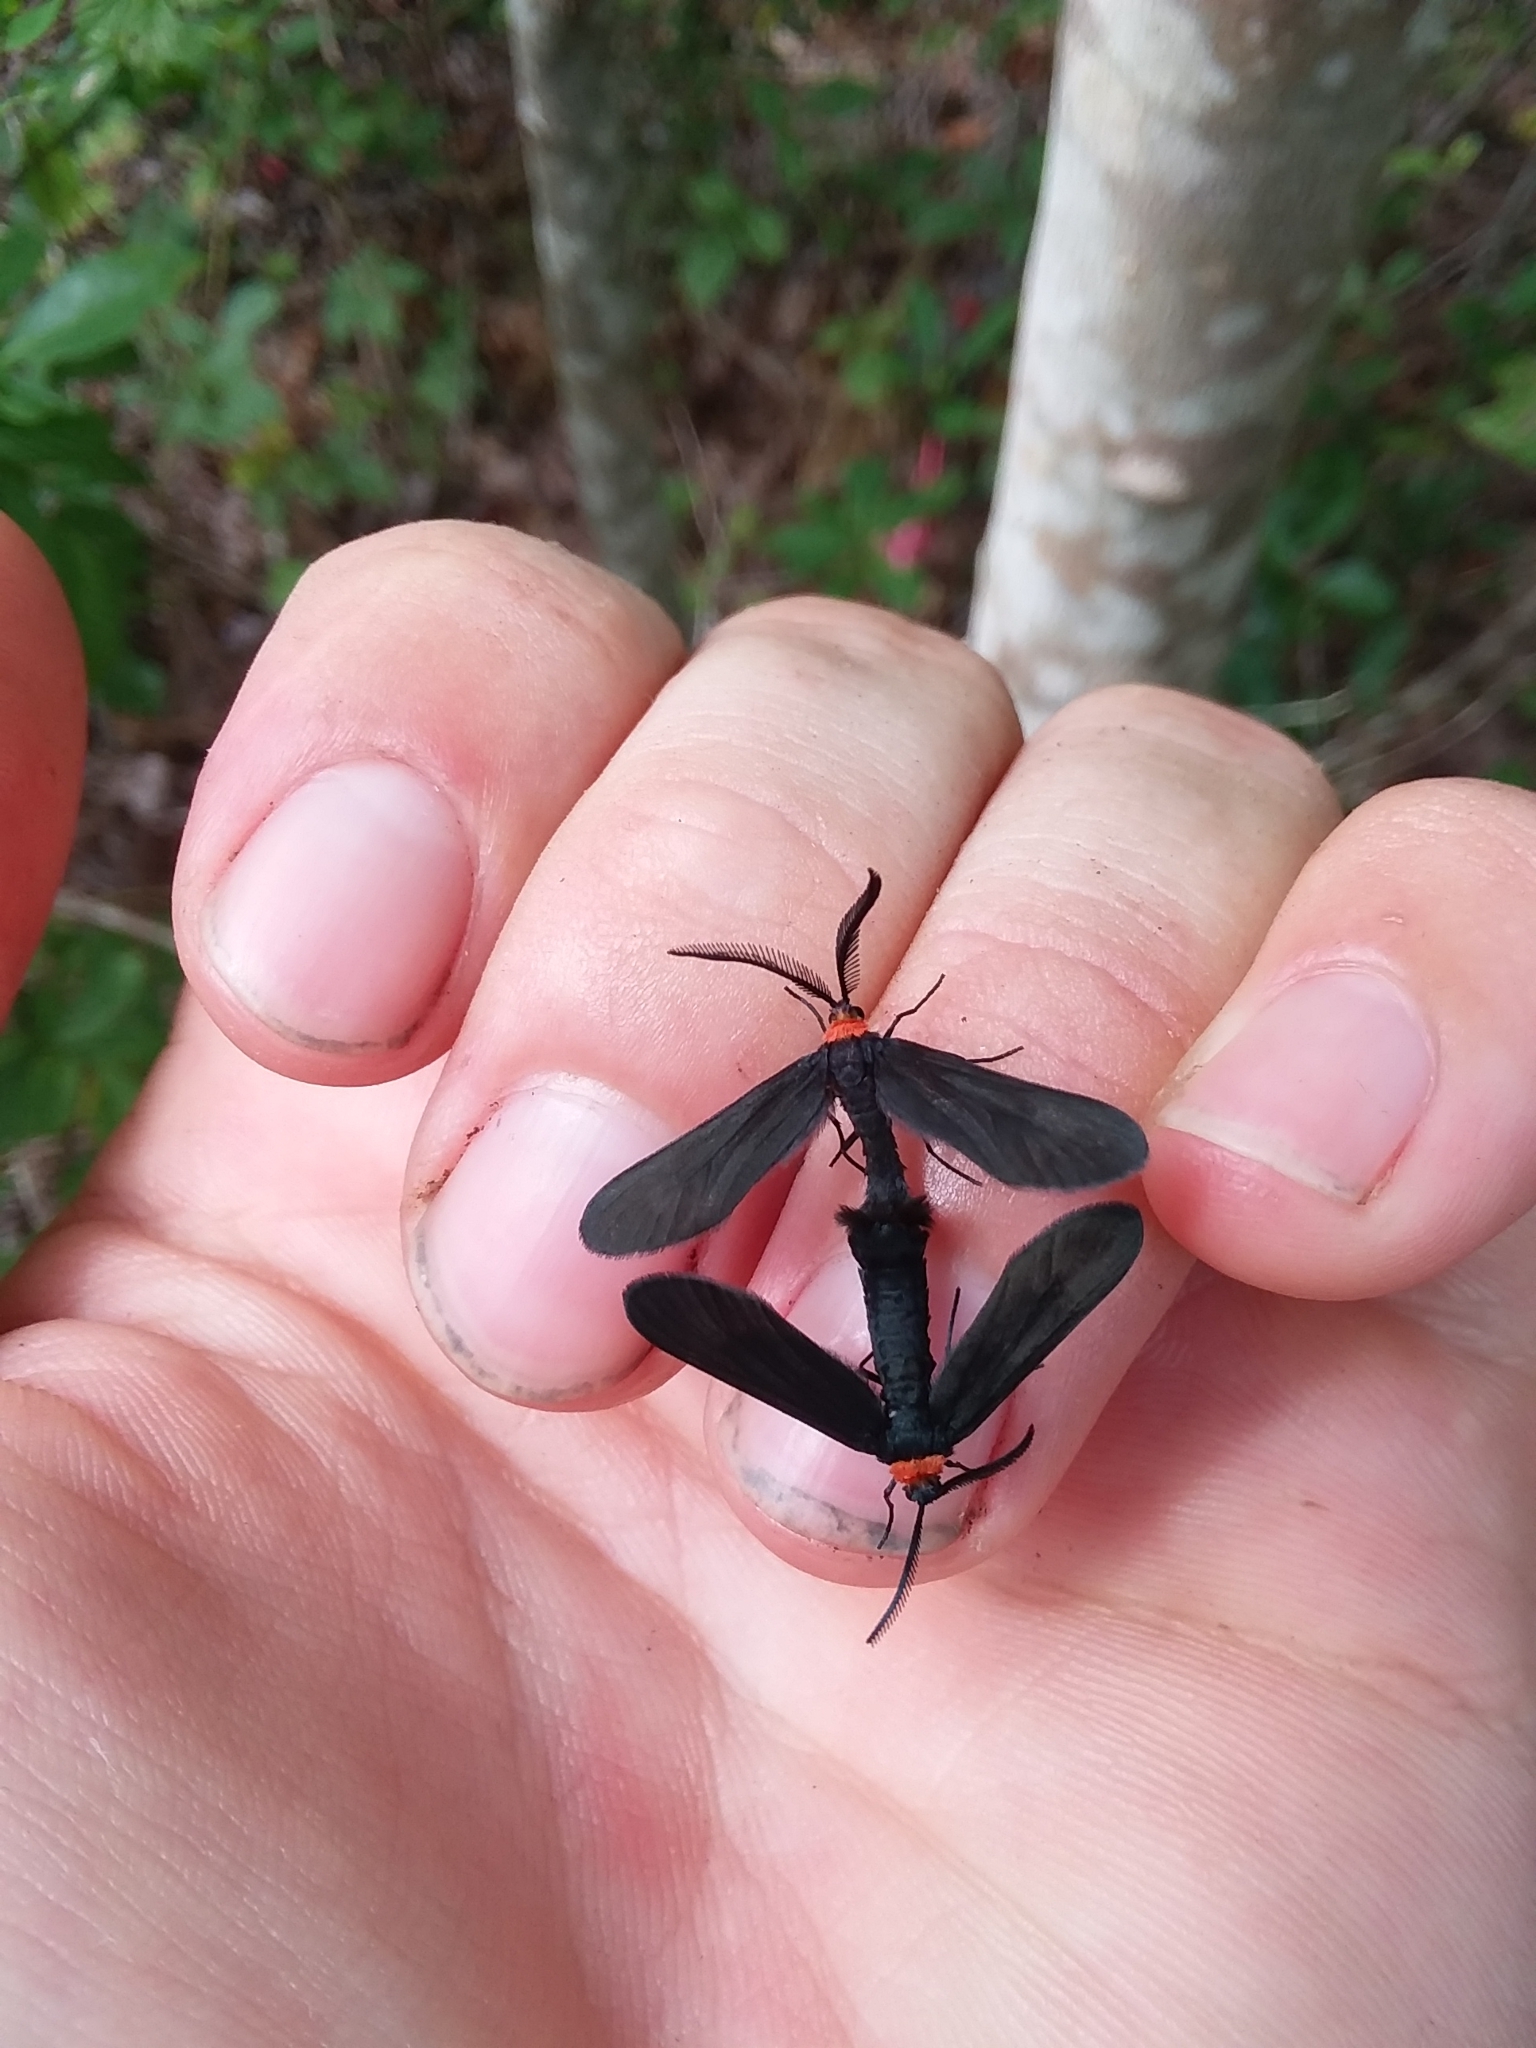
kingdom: Animalia
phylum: Arthropoda
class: Insecta
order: Lepidoptera
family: Zygaenidae
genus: Harrisina
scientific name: Harrisina americana
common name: Grapeleaf skeletonizer moth
